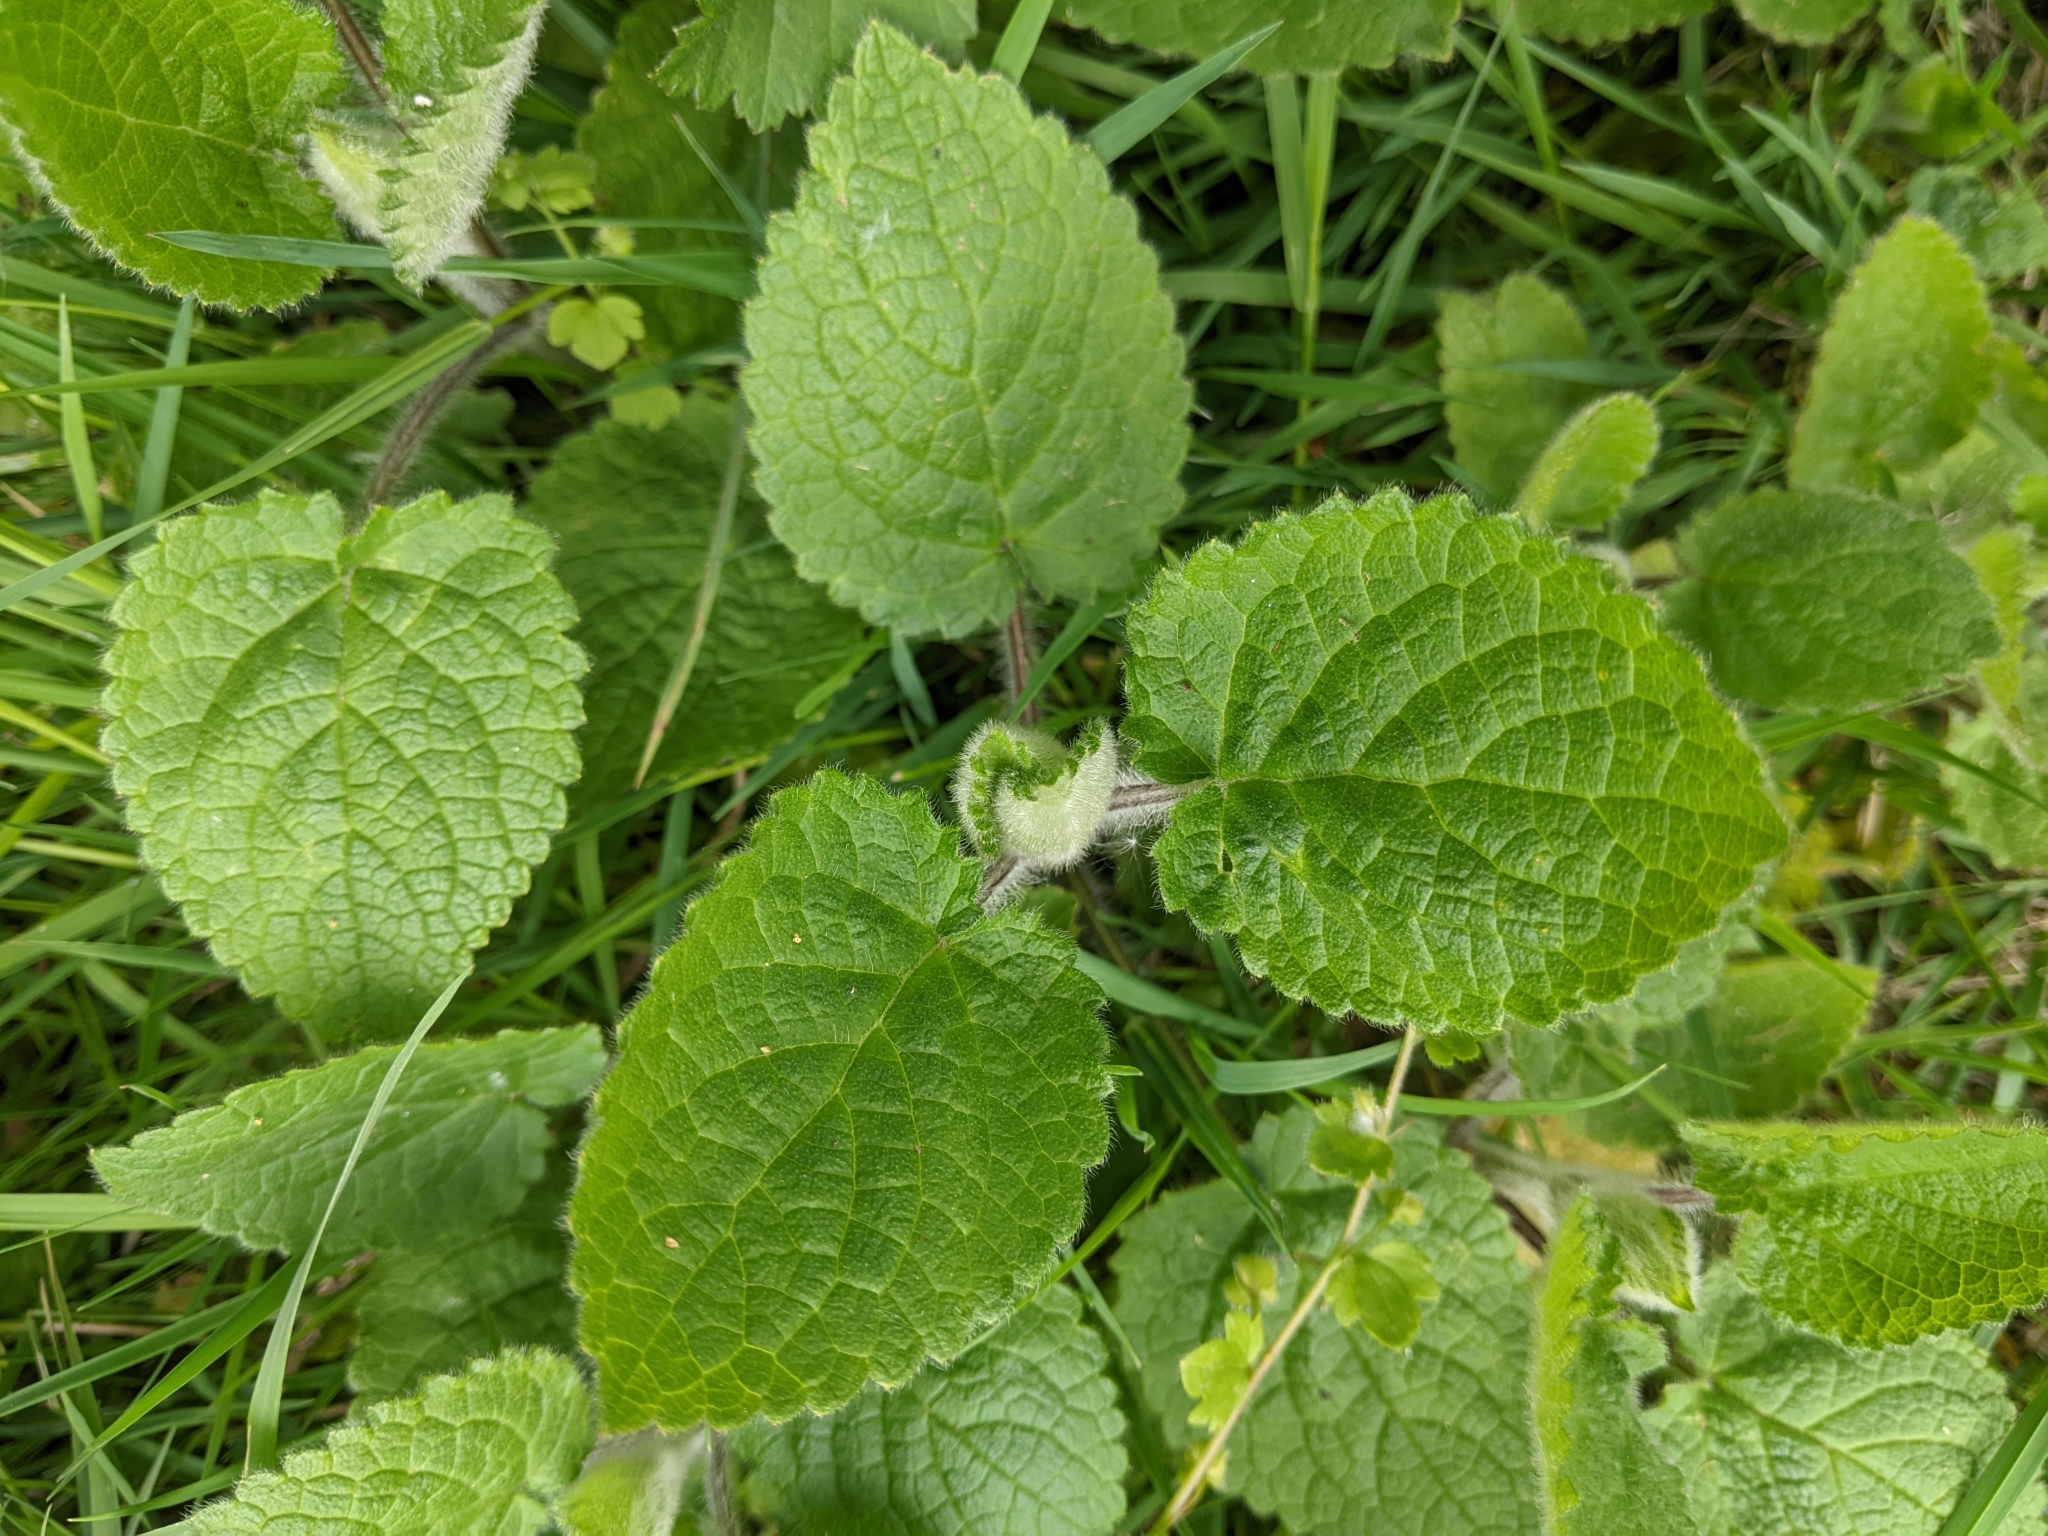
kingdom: Plantae
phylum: Tracheophyta
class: Magnoliopsida
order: Lamiales
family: Lamiaceae
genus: Stachys
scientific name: Stachys sylvatica
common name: Hedge woundwort
